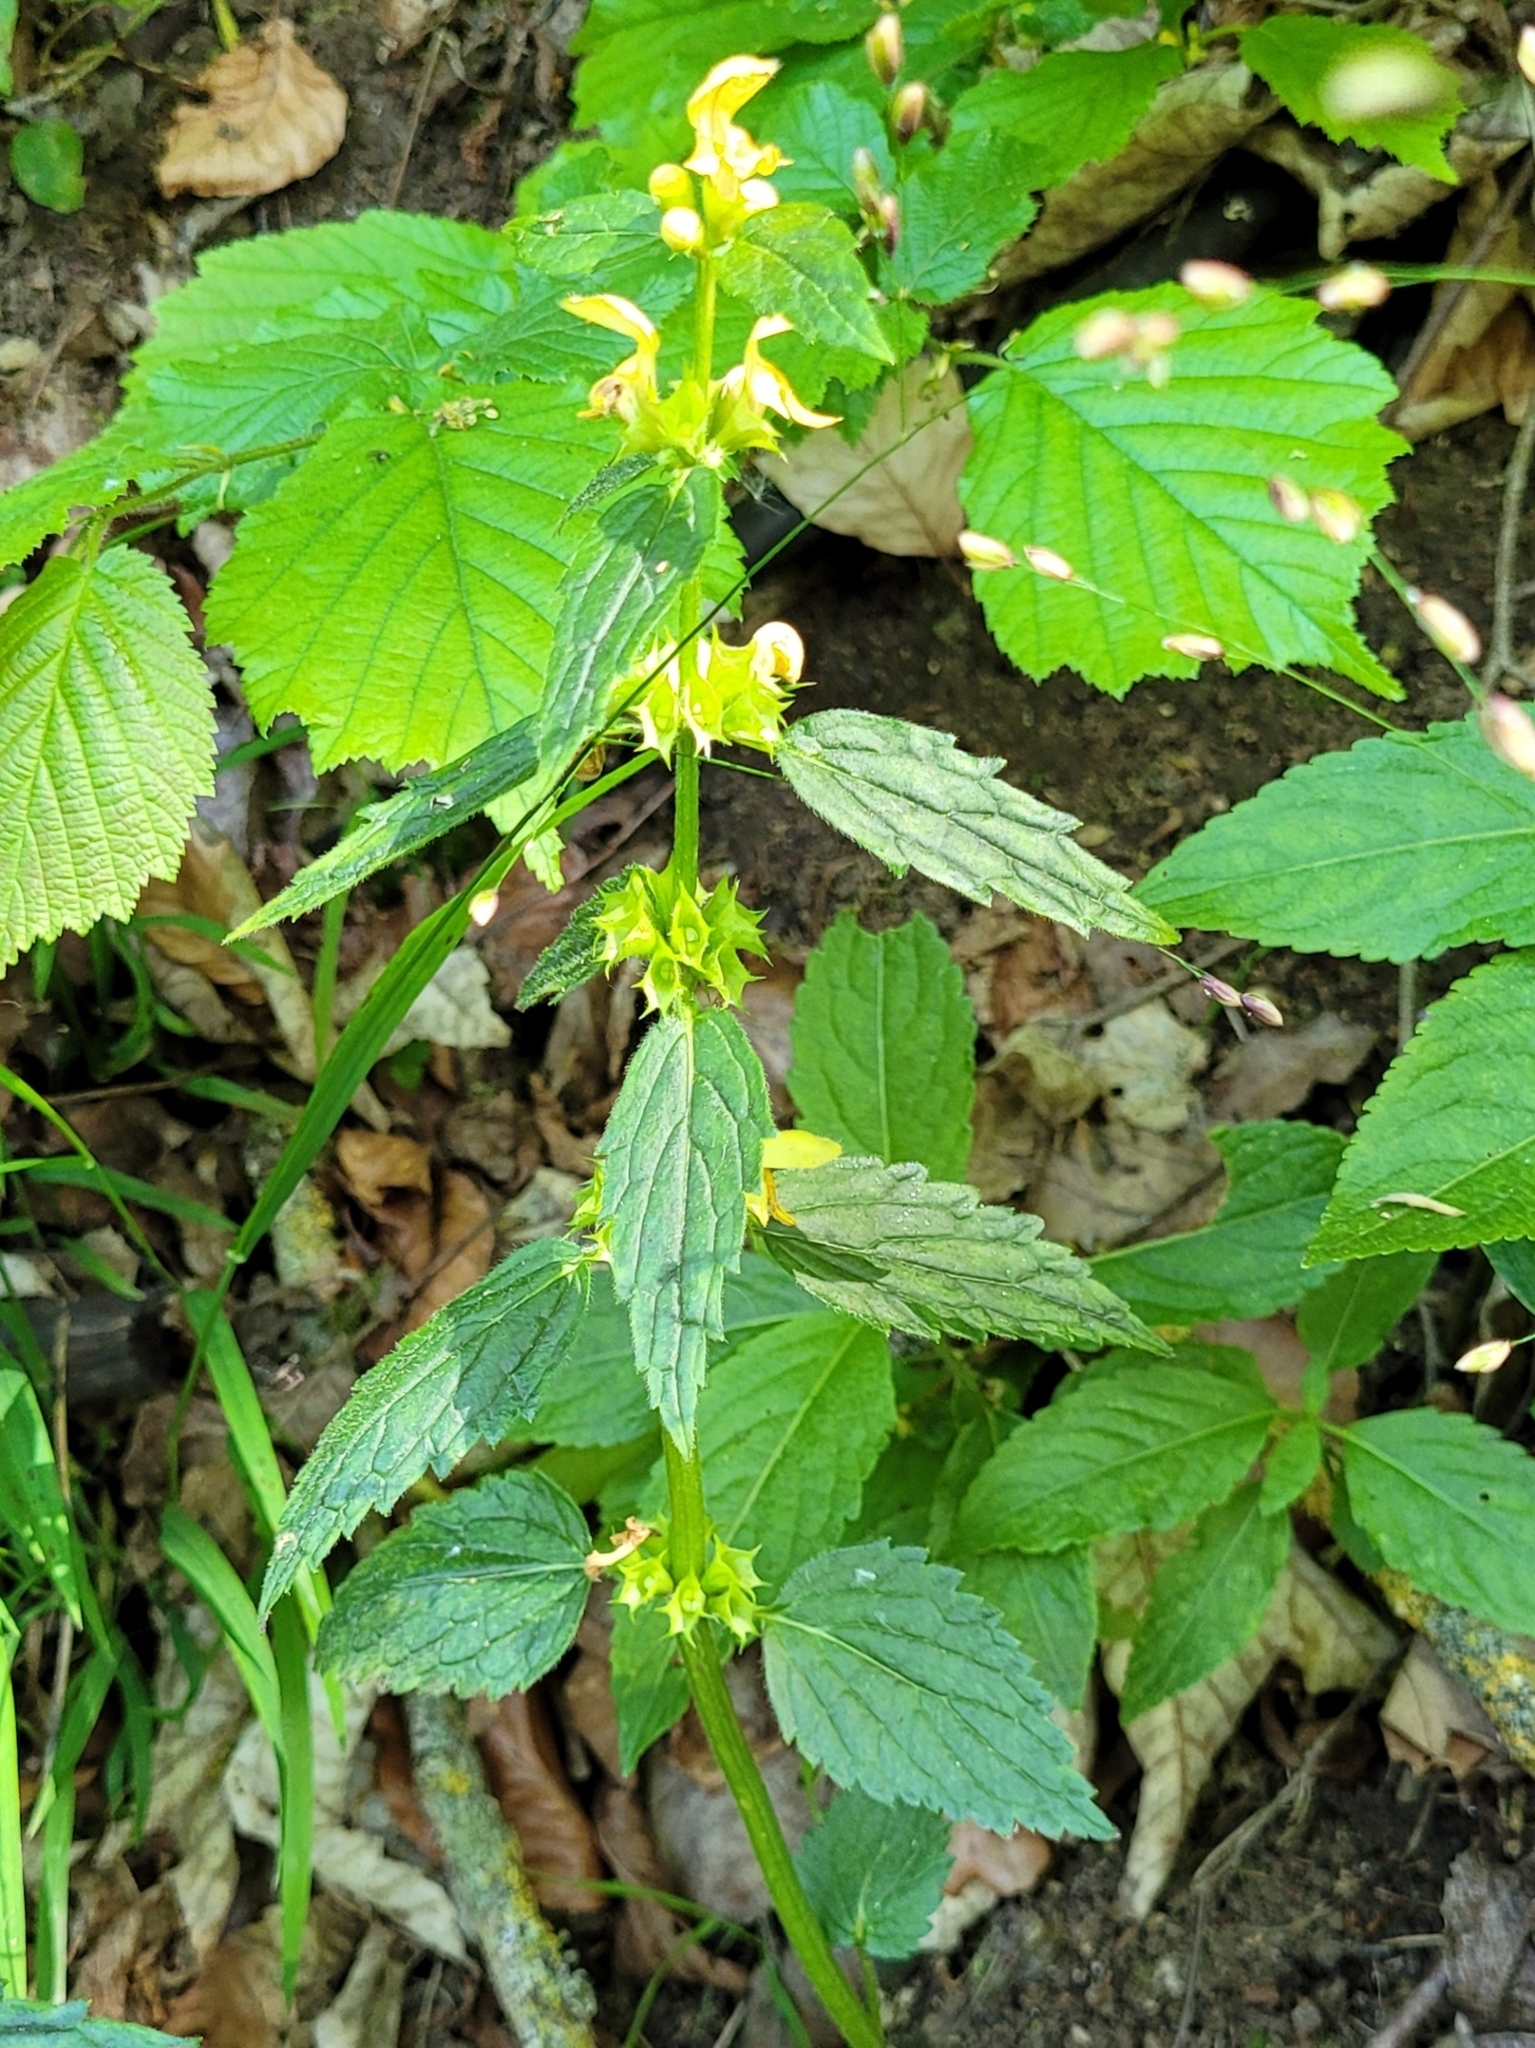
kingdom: Plantae
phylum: Tracheophyta
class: Magnoliopsida
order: Lamiales
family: Lamiaceae
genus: Lamium
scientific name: Lamium galeobdolon
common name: Yellow archangel
